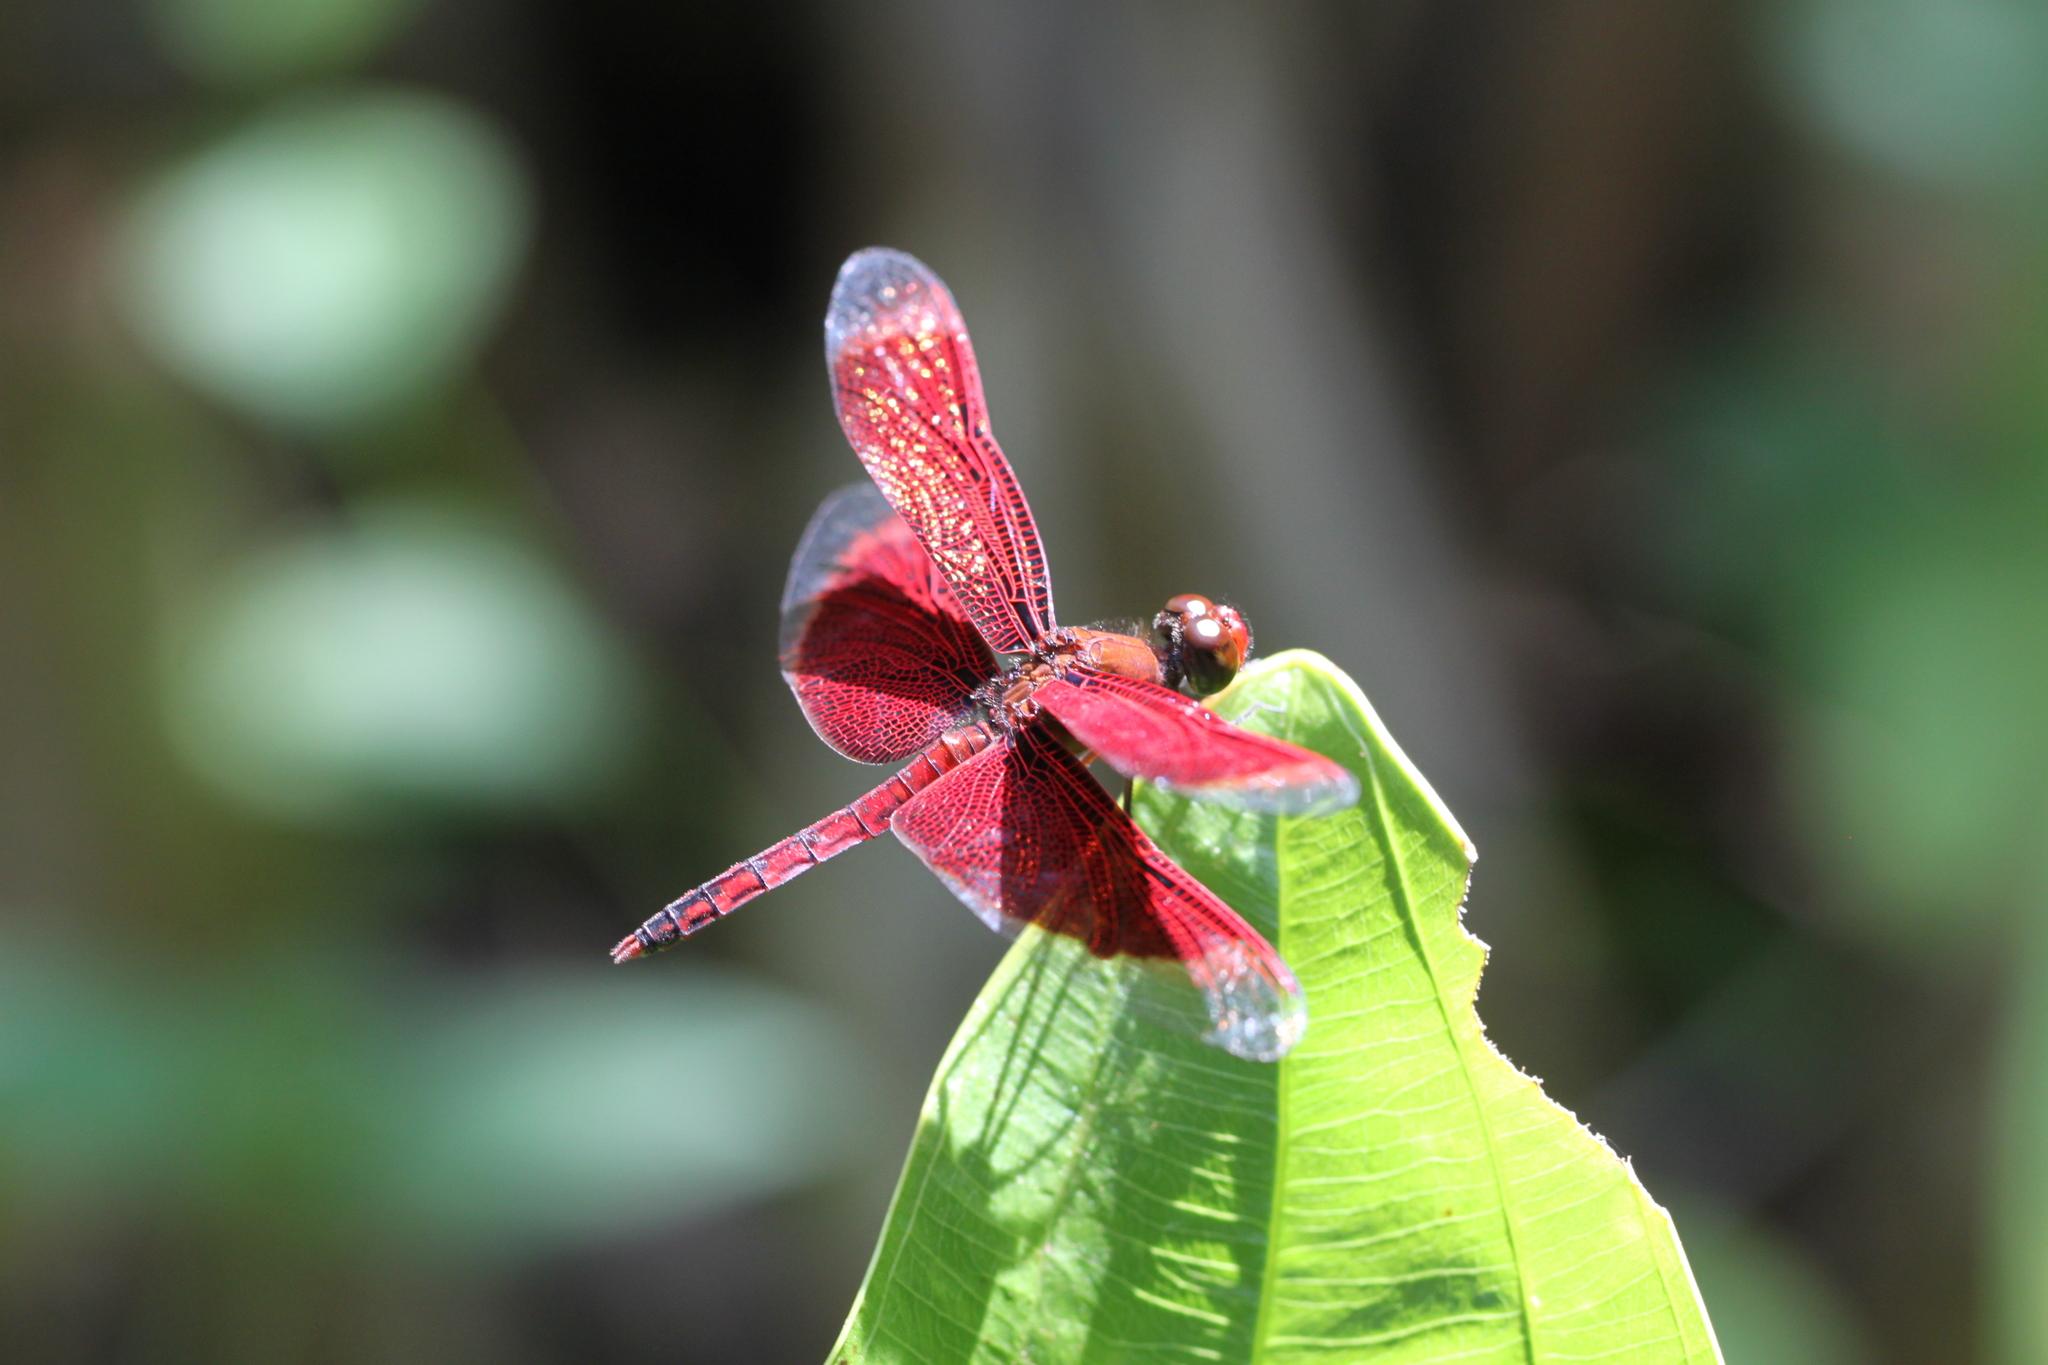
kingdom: Animalia
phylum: Arthropoda
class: Insecta
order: Odonata
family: Libellulidae
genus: Neurothemis
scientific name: Neurothemis fluctuans
